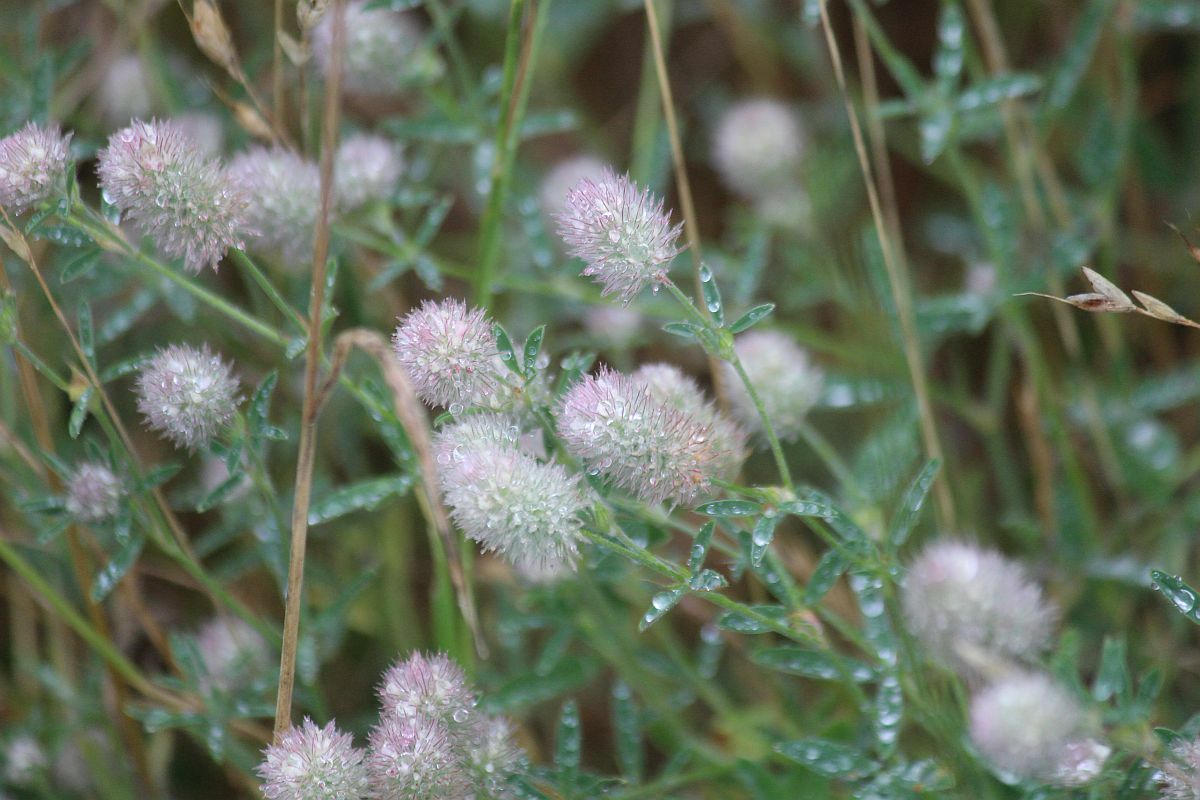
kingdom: Plantae
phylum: Tracheophyta
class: Magnoliopsida
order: Fabales
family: Fabaceae
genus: Trifolium
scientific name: Trifolium arvense
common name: Hare's-foot clover
